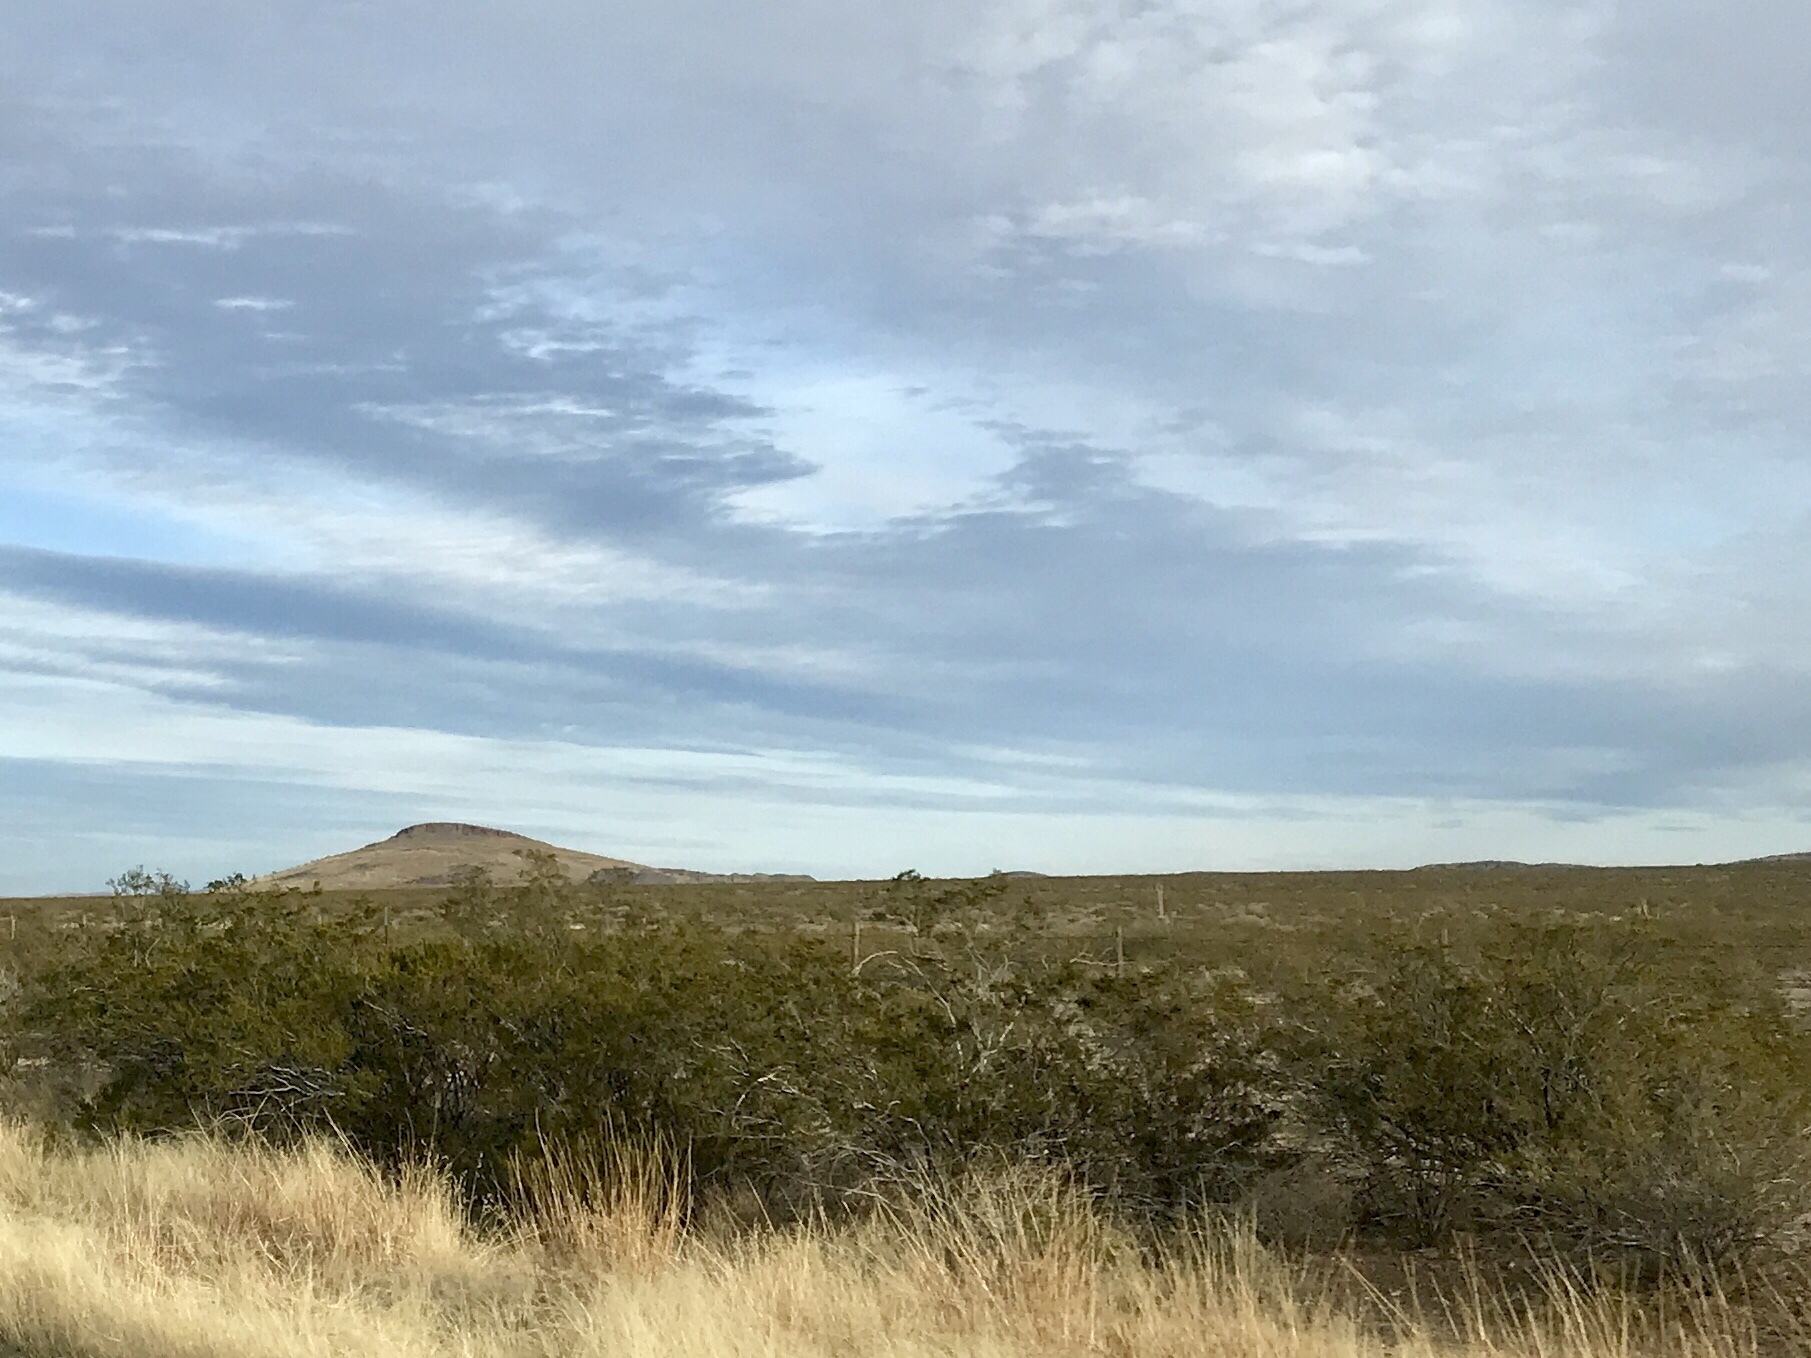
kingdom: Plantae
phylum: Tracheophyta
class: Magnoliopsida
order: Zygophyllales
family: Zygophyllaceae
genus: Larrea
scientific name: Larrea tridentata
